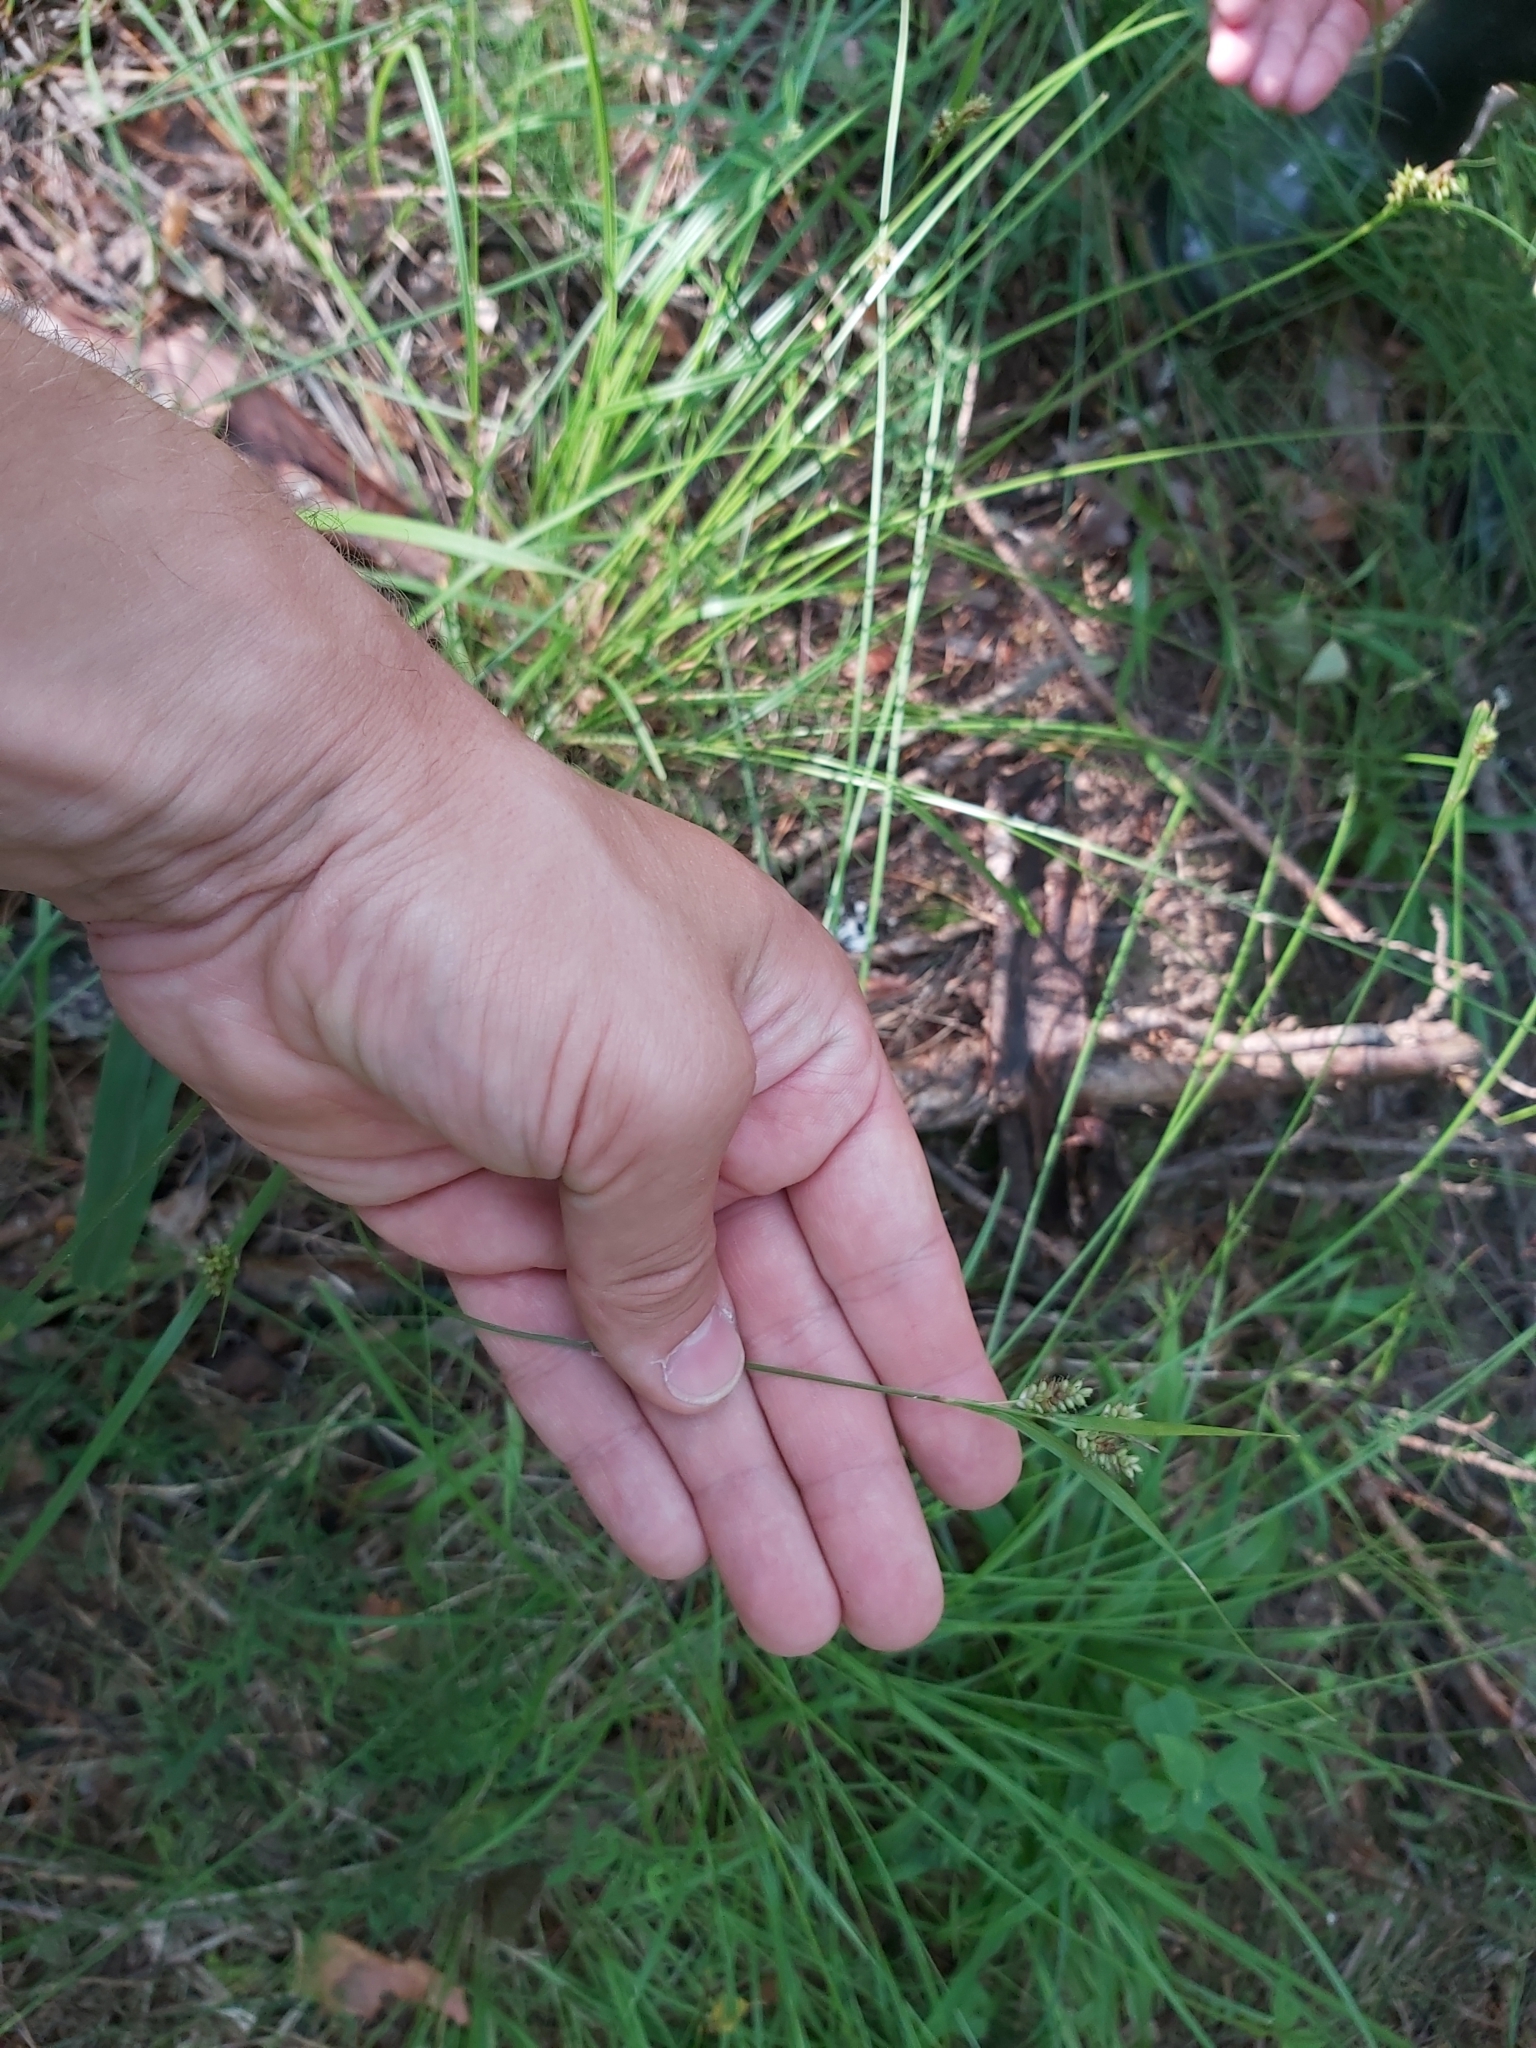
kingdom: Plantae
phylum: Tracheophyta
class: Liliopsida
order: Poales
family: Cyperaceae
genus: Carex
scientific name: Carex pallescens
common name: Pale sedge
